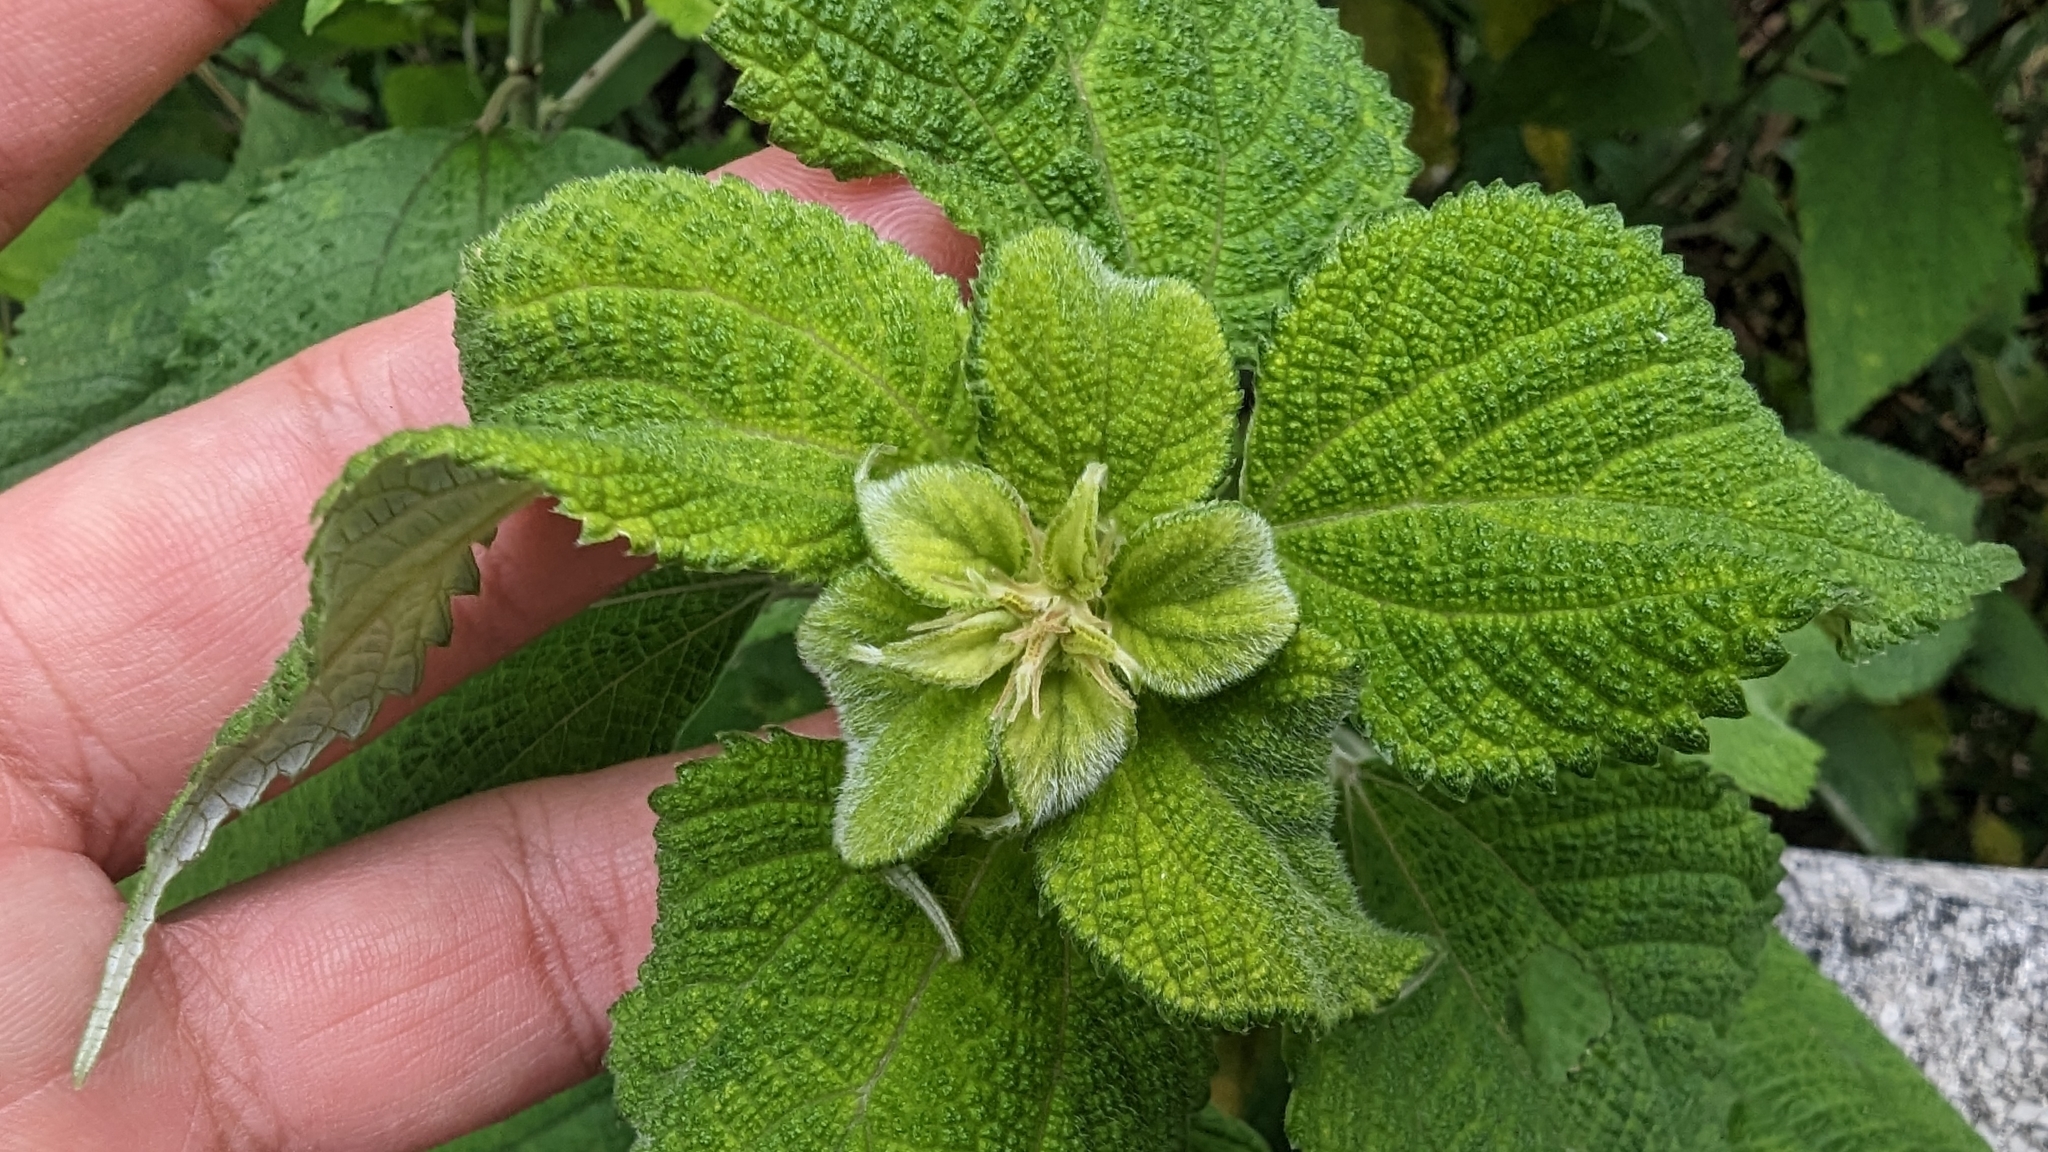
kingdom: Plantae
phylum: Tracheophyta
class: Magnoliopsida
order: Rosales
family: Urticaceae
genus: Boehmeria
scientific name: Boehmeria nivea
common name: Ramie chinese grass
